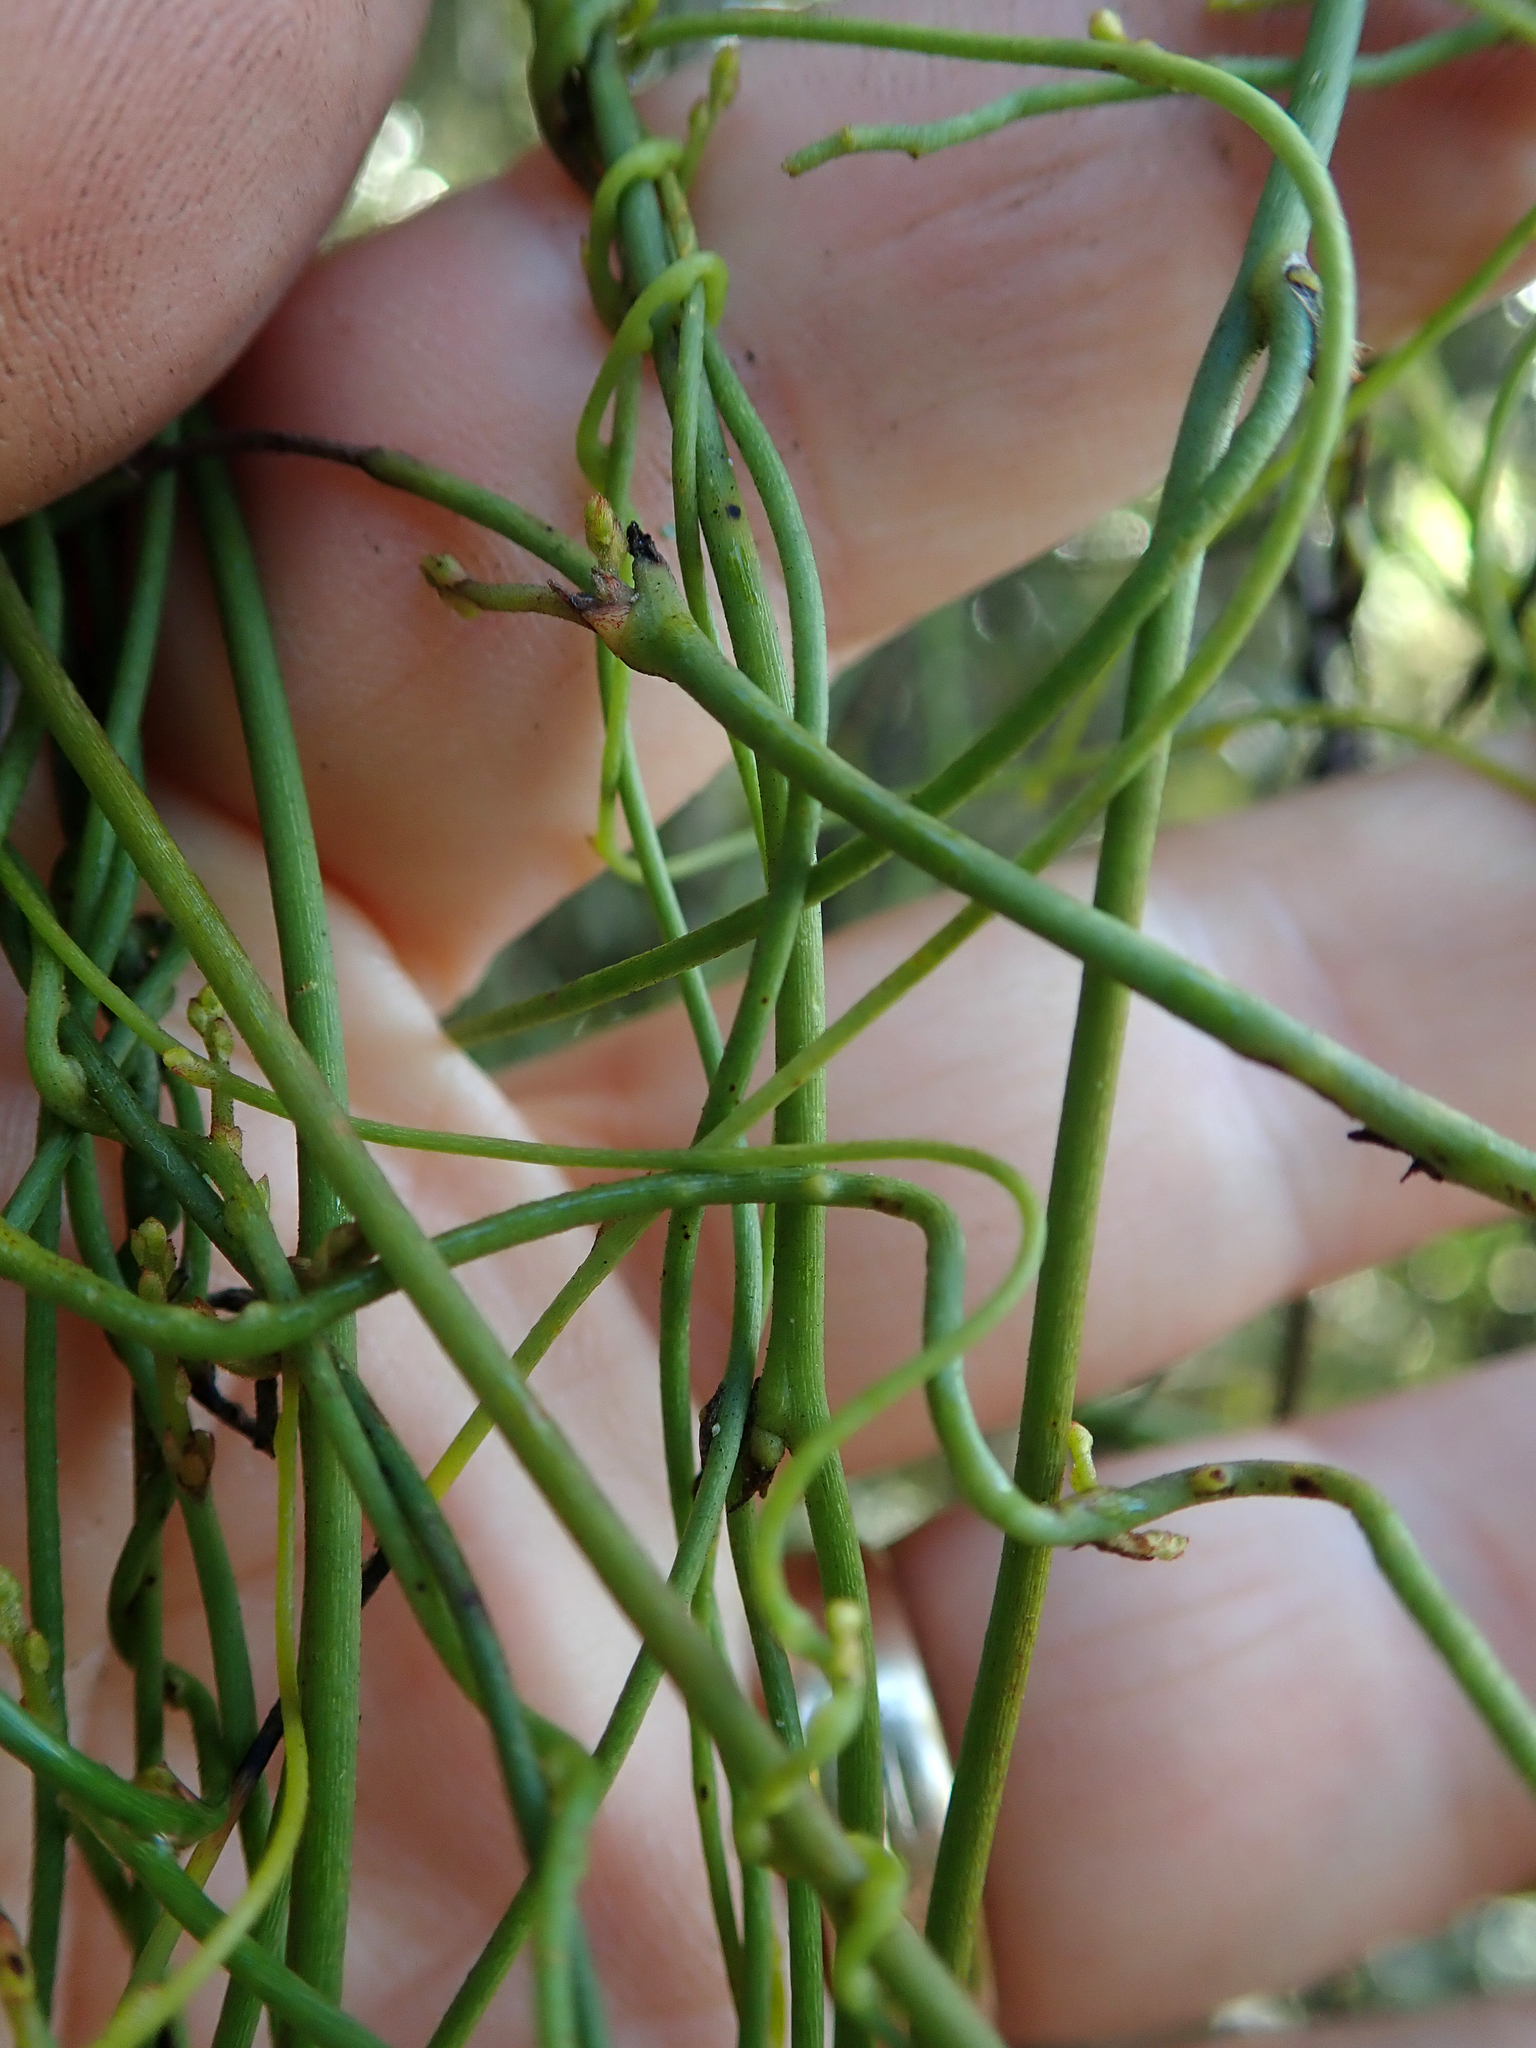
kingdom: Plantae
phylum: Tracheophyta
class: Magnoliopsida
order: Laurales
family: Lauraceae
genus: Cassytha
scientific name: Cassytha paniculata
